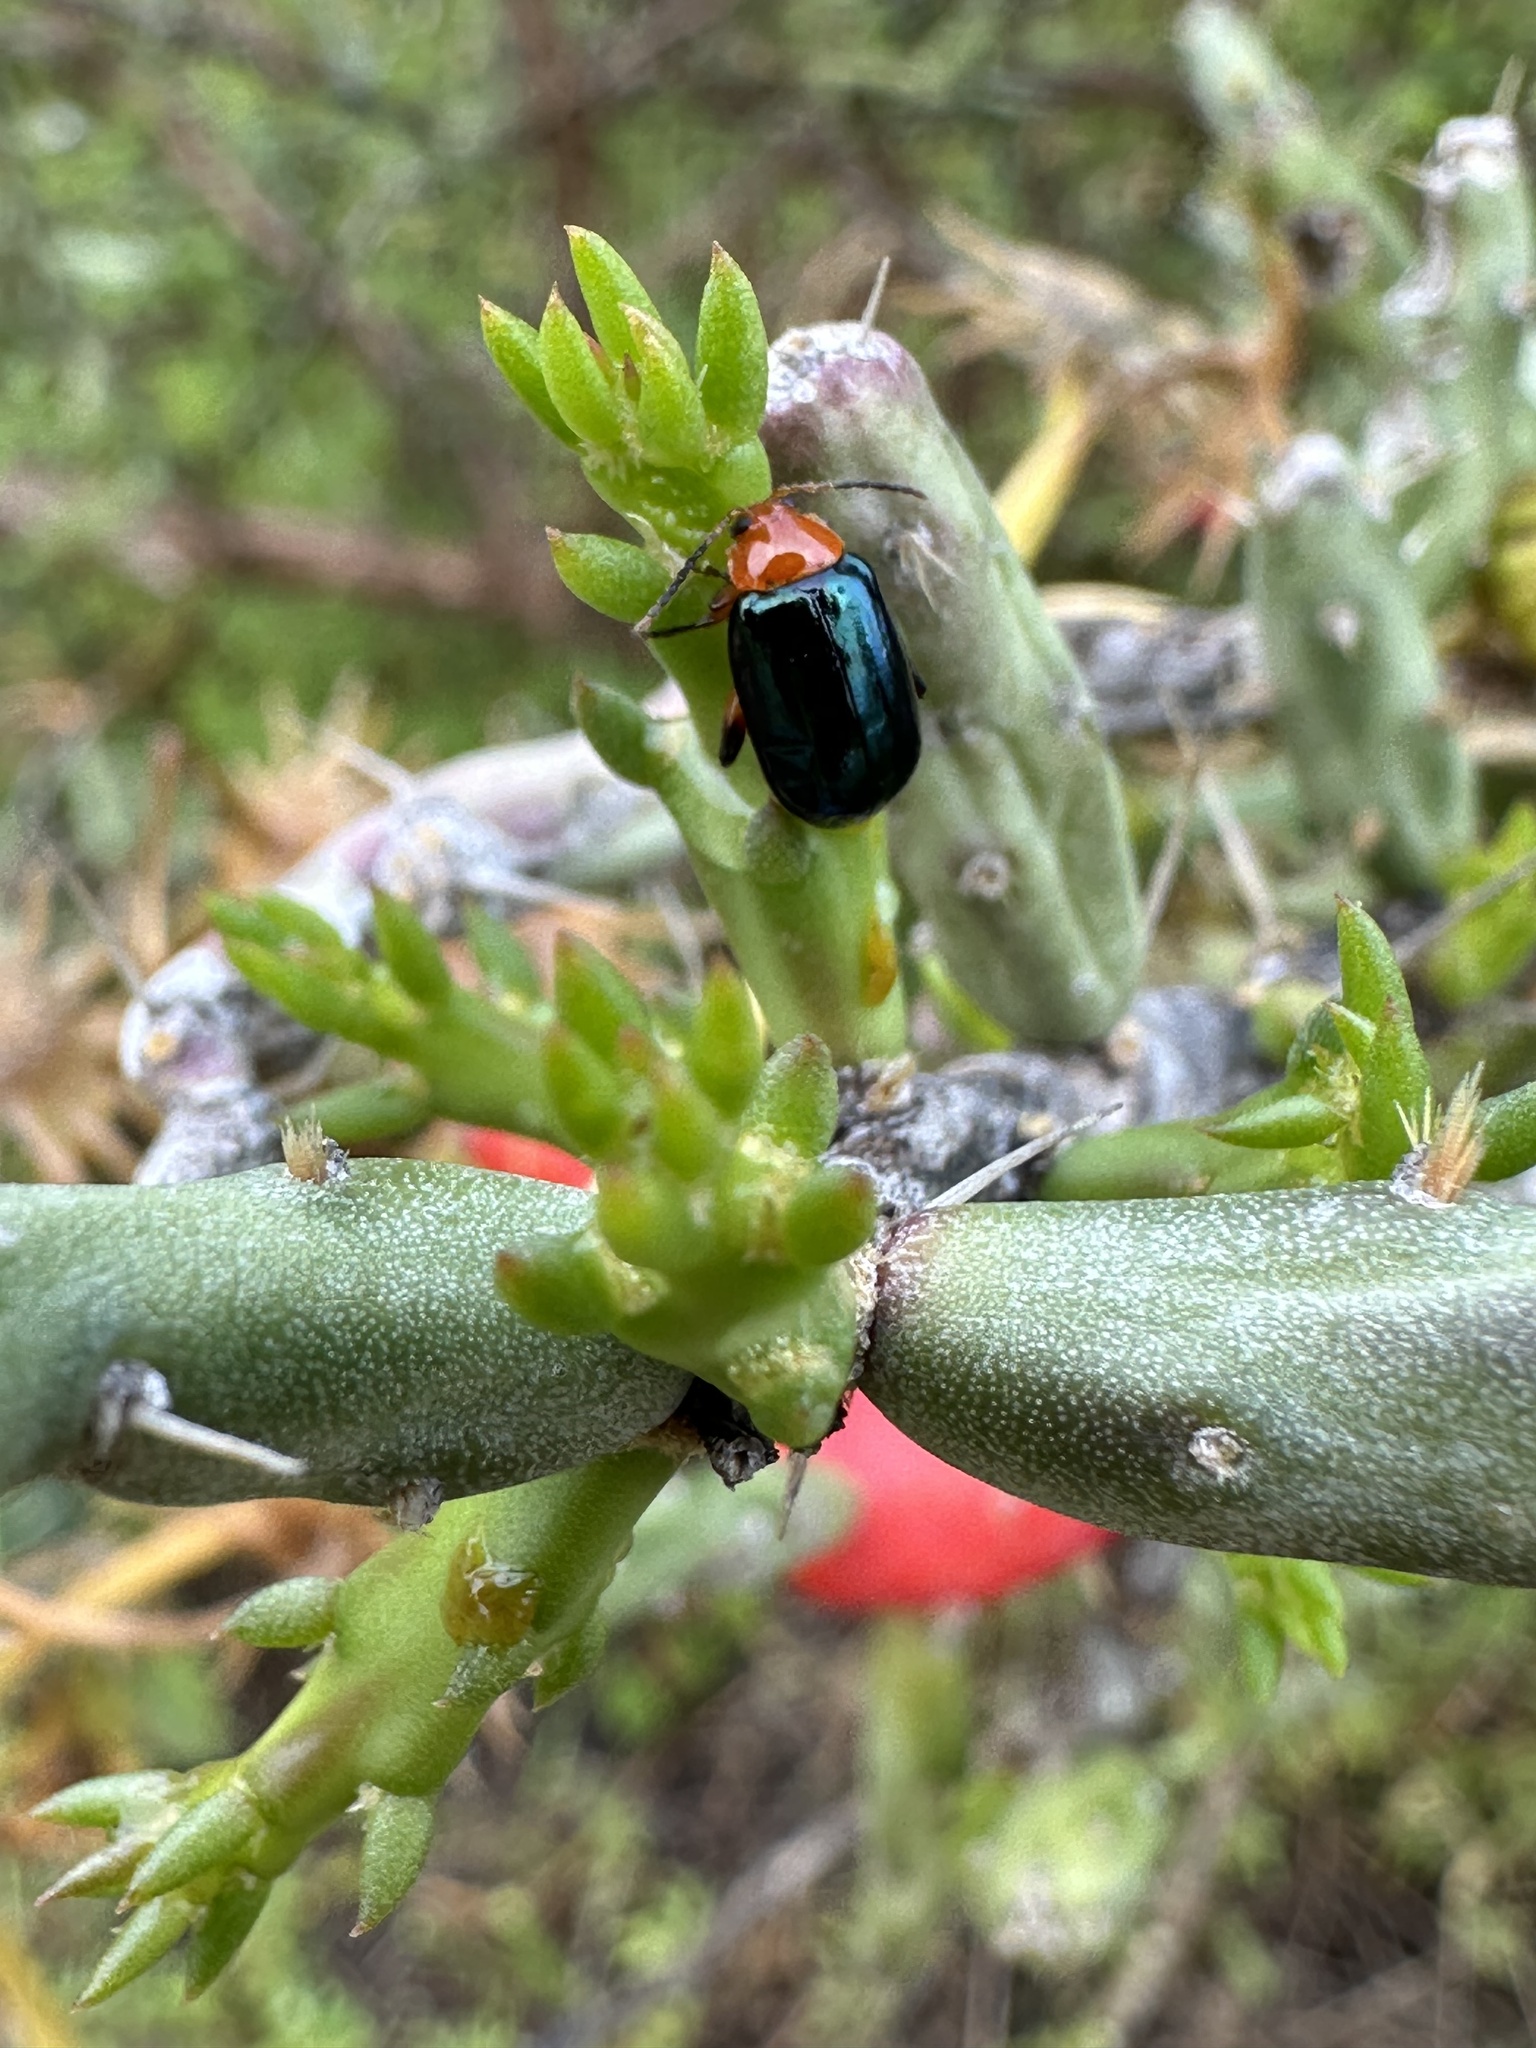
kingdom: Animalia
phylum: Arthropoda
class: Insecta
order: Coleoptera
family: Chrysomelidae
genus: Asphaera
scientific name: Asphaera lustrans
